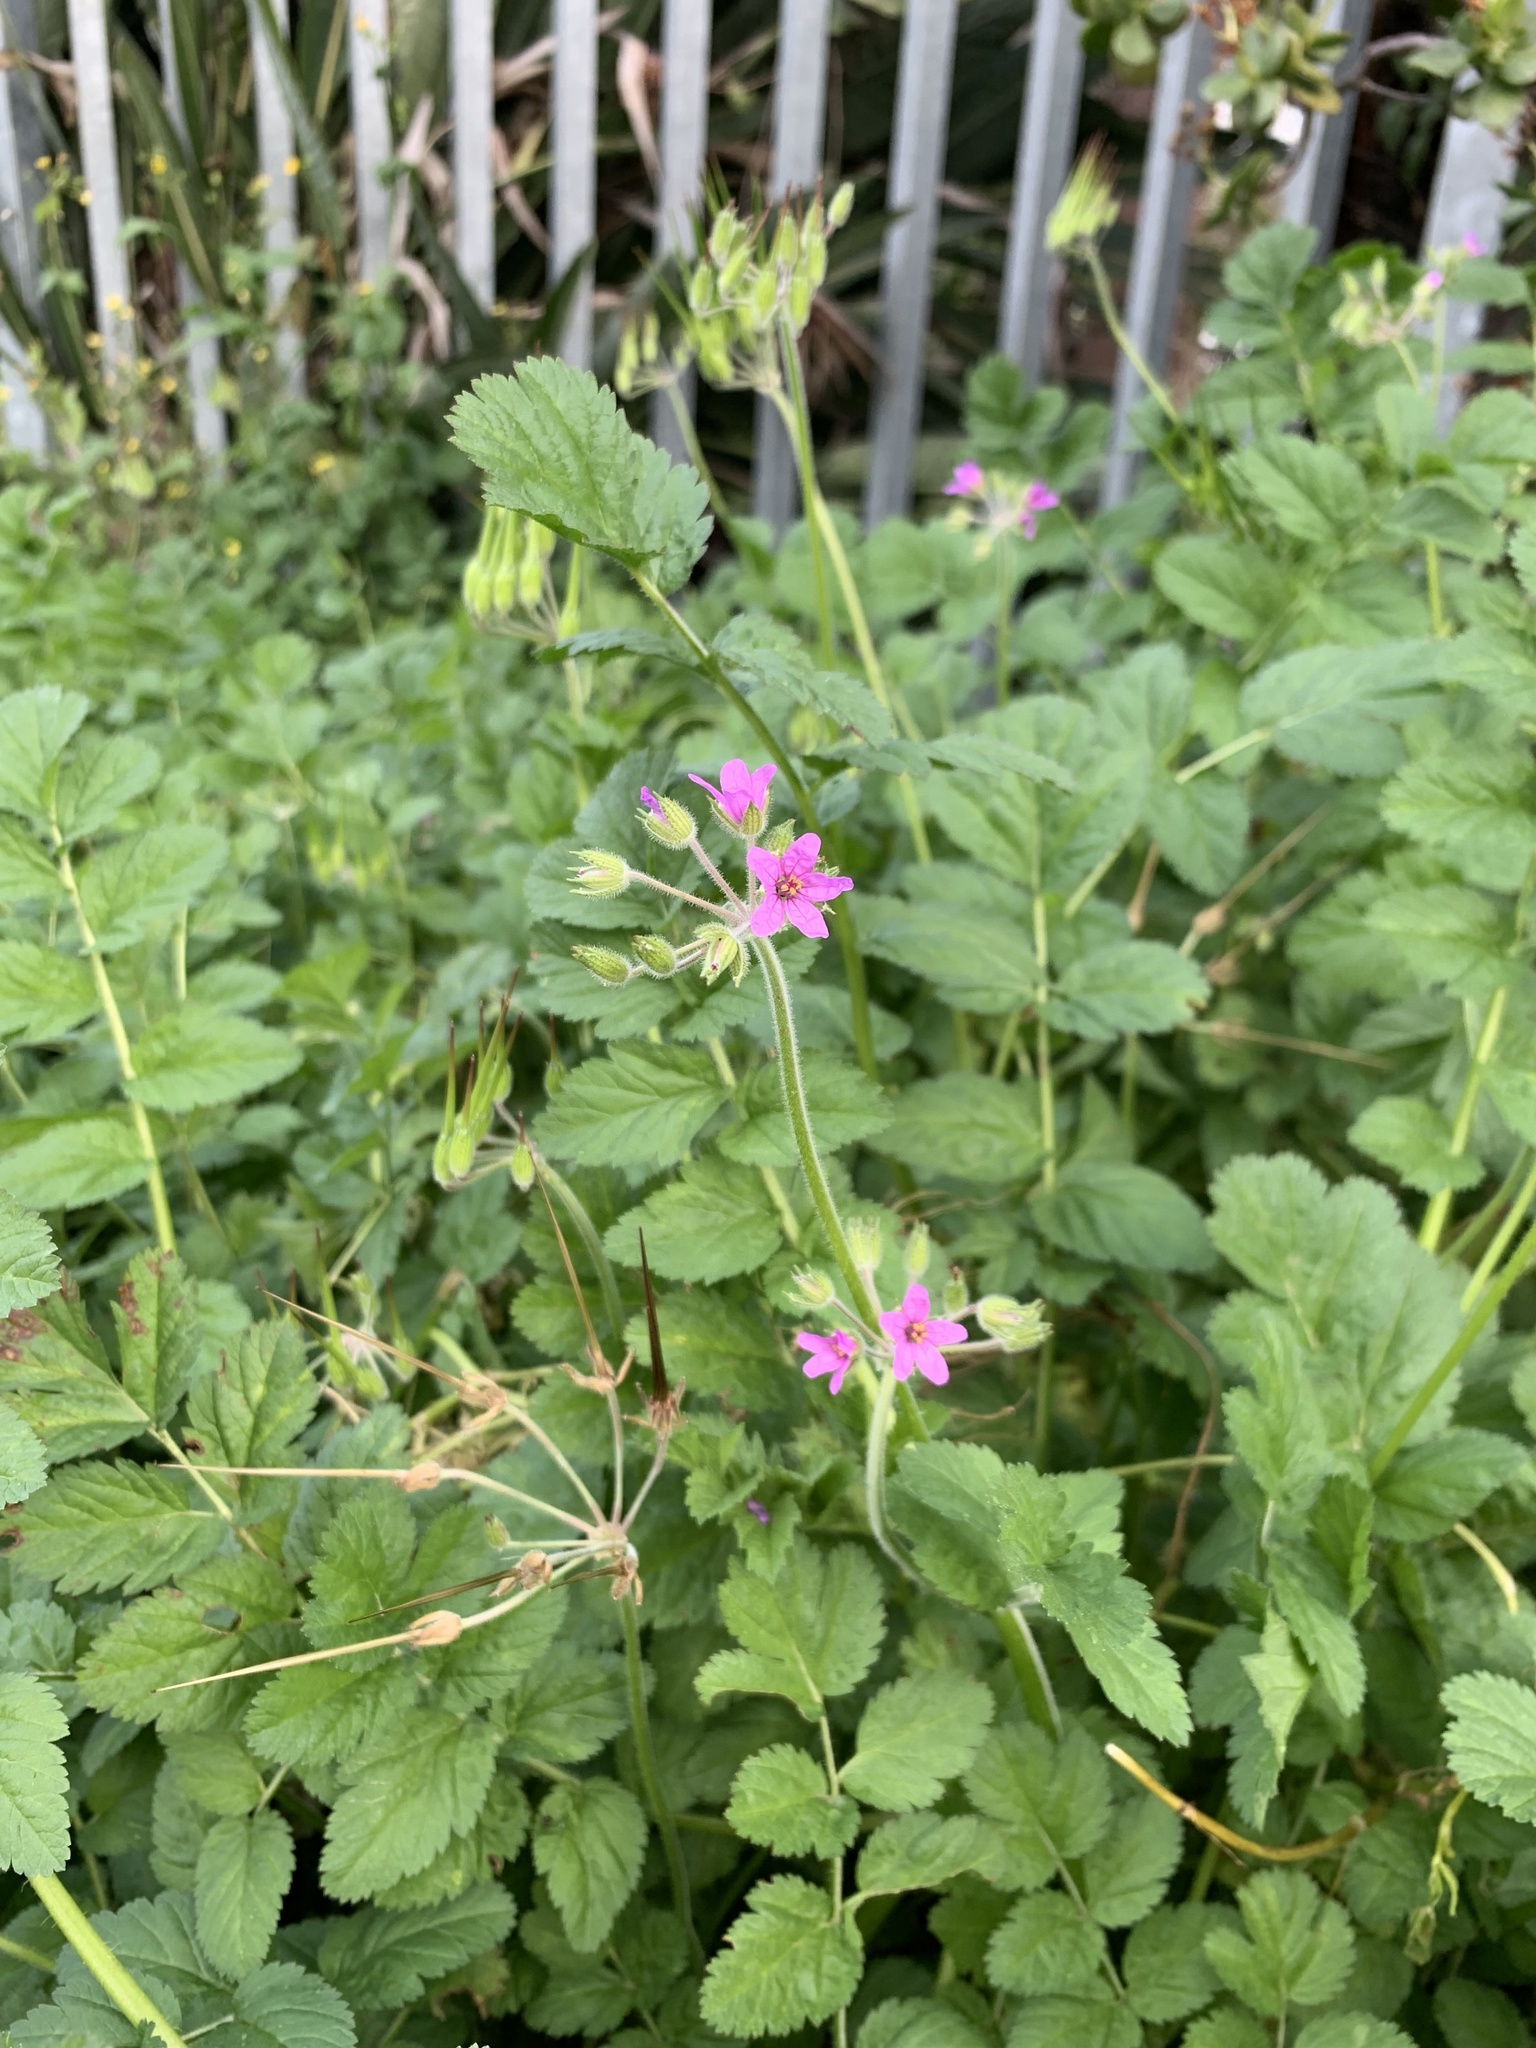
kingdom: Plantae
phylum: Tracheophyta
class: Magnoliopsida
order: Geraniales
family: Geraniaceae
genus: Erodium
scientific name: Erodium moschatum
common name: Musk stork's-bill
